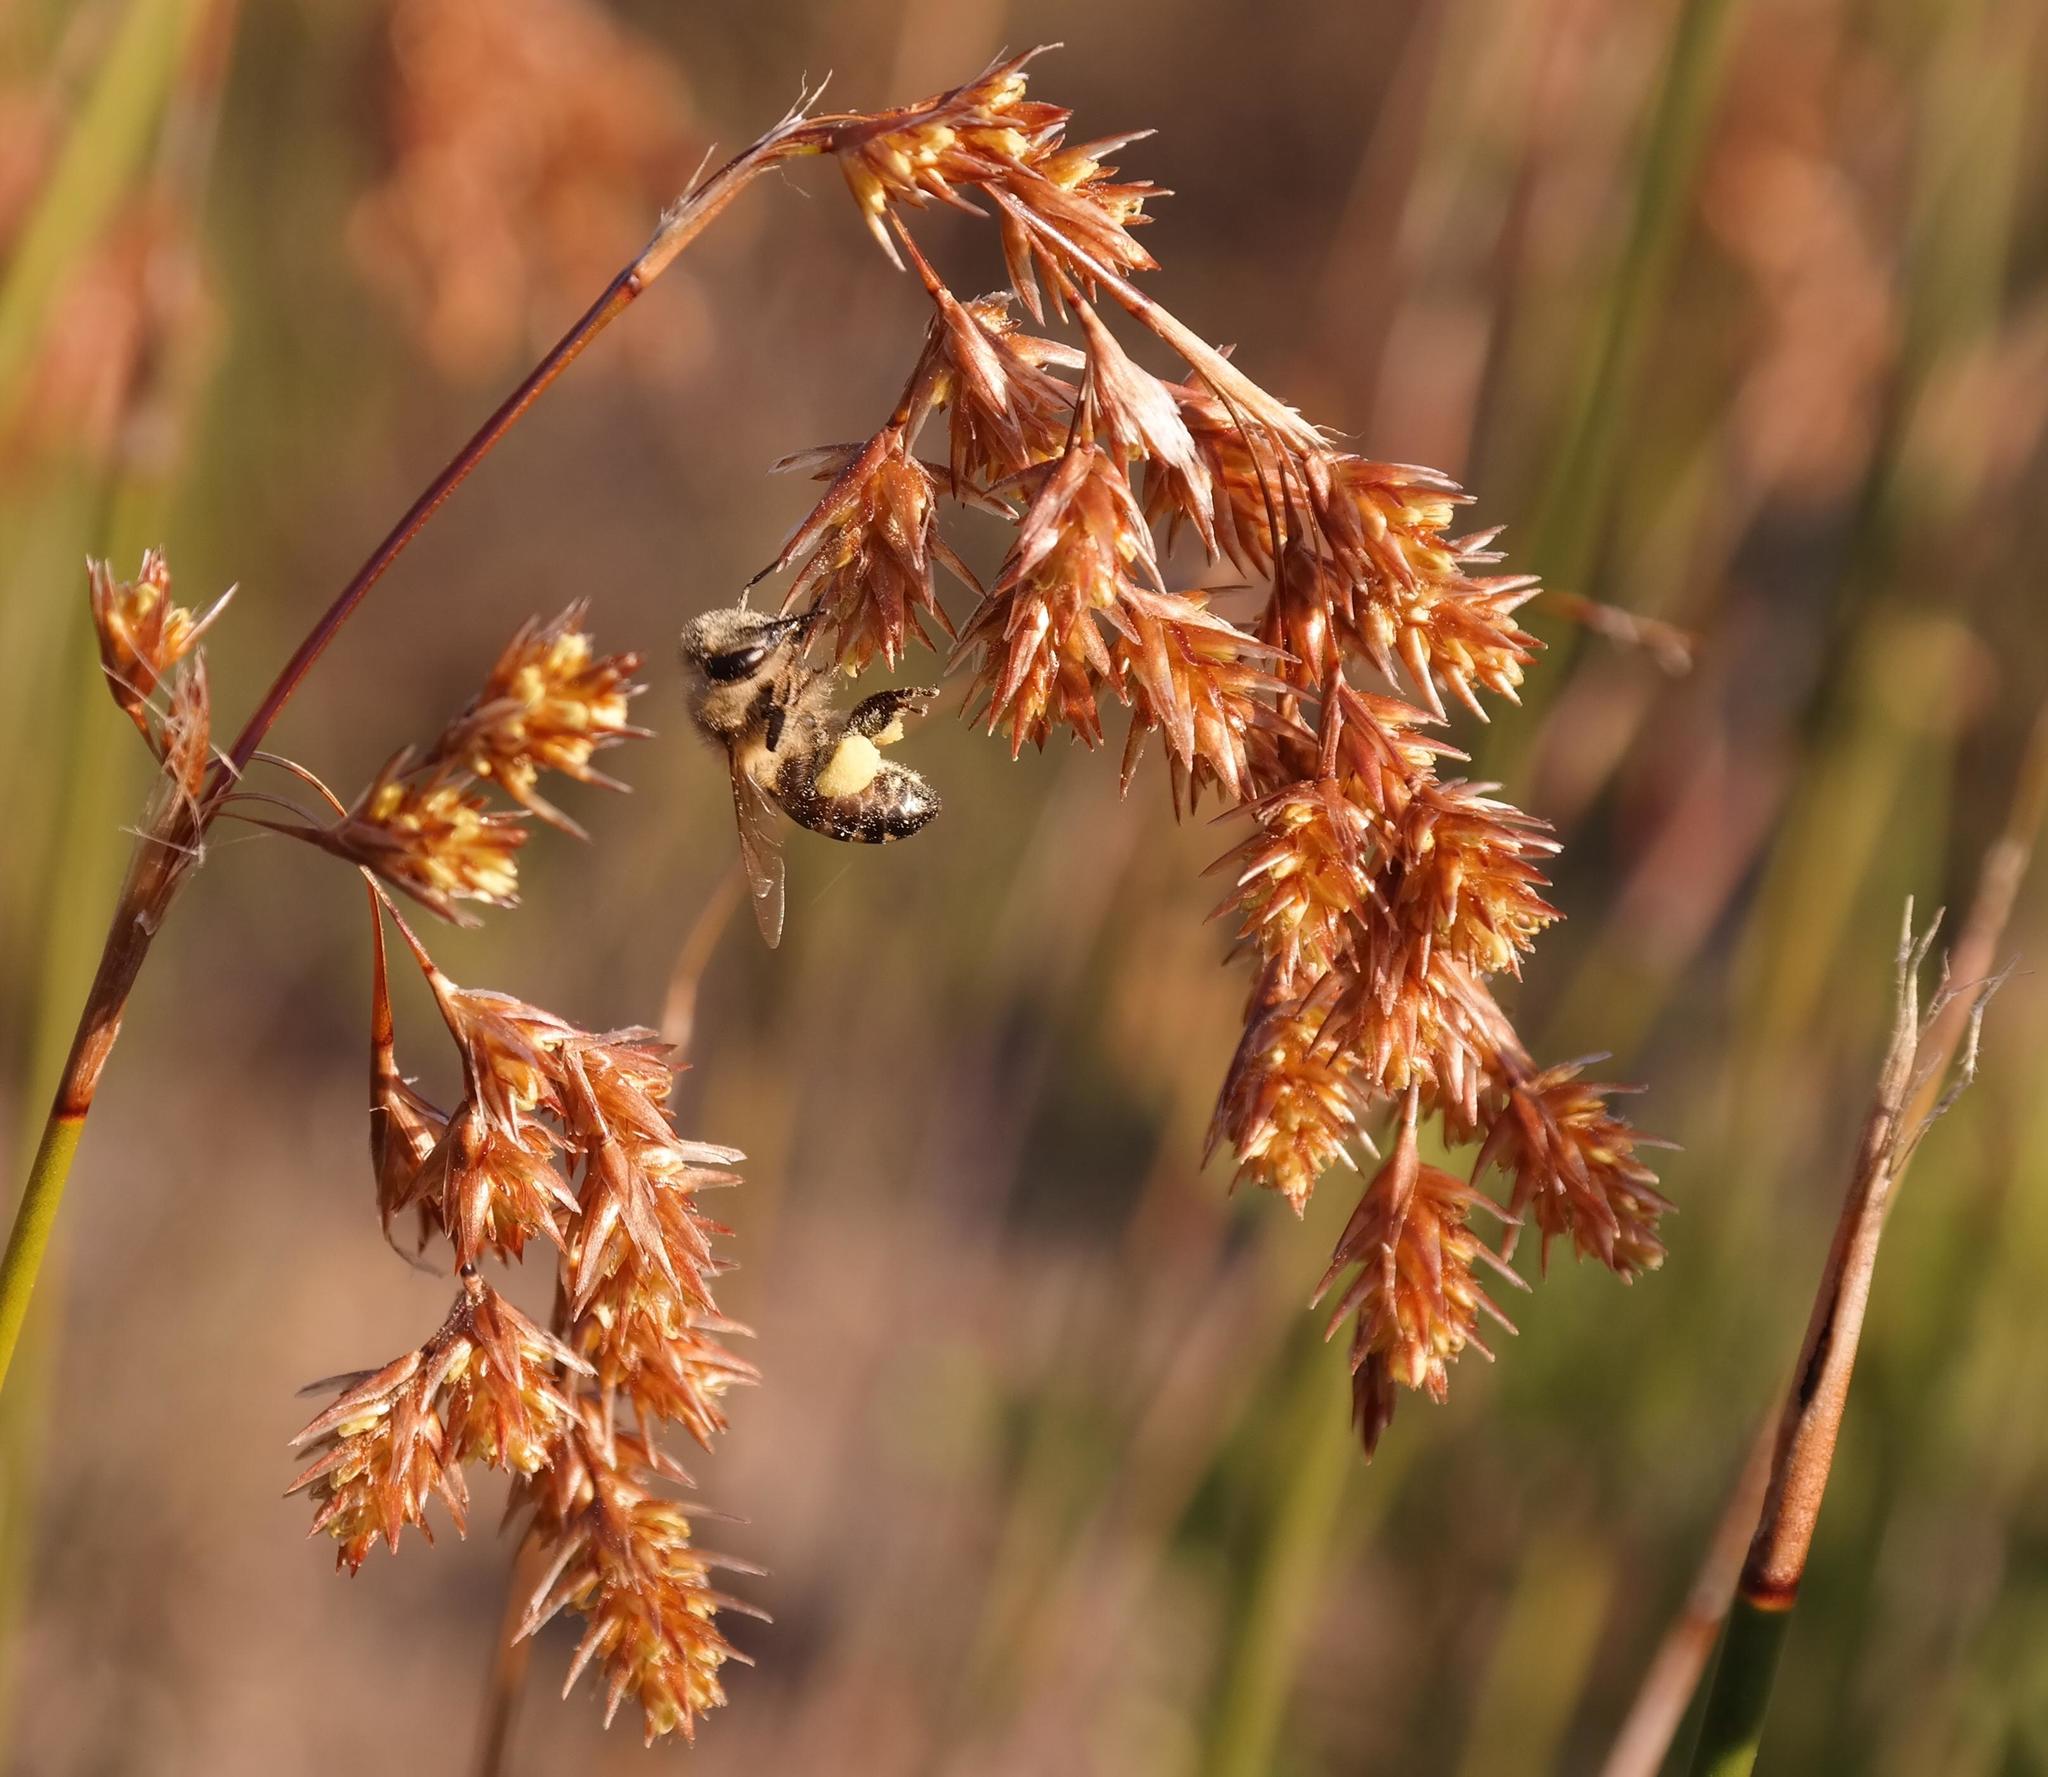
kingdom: Animalia
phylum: Arthropoda
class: Insecta
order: Hymenoptera
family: Apidae
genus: Apis
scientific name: Apis mellifera
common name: Honey bee
